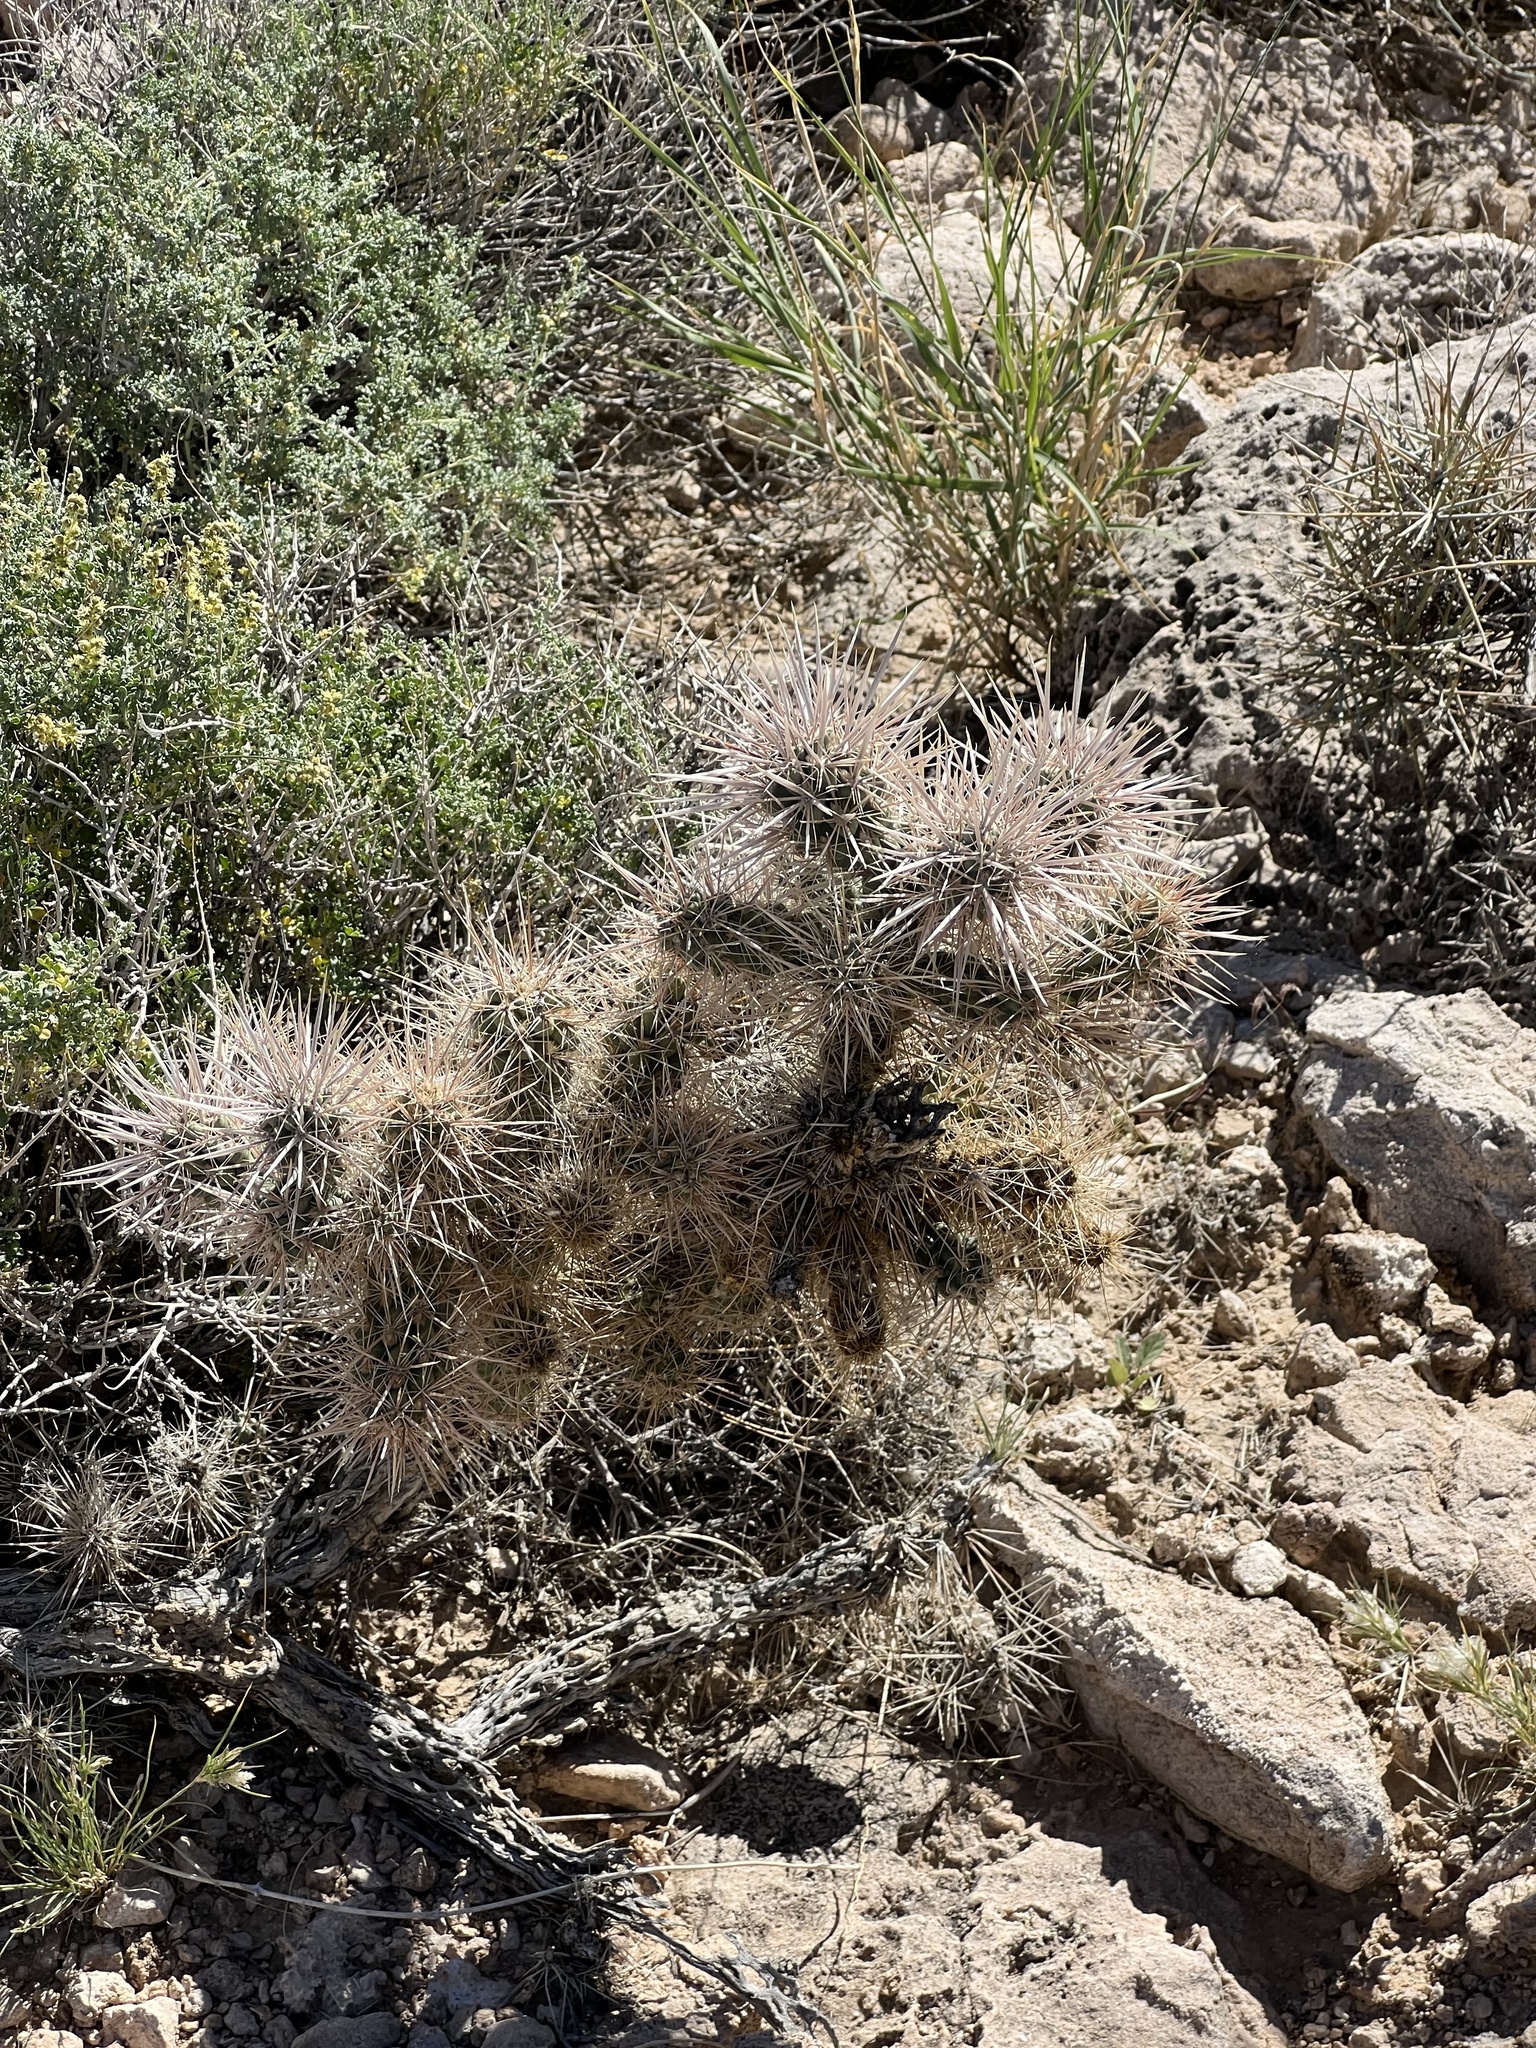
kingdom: Plantae
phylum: Tracheophyta
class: Magnoliopsida
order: Caryophyllales
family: Cactaceae
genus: Cylindropuntia
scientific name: Cylindropuntia echinocarpa
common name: Ground cholla
